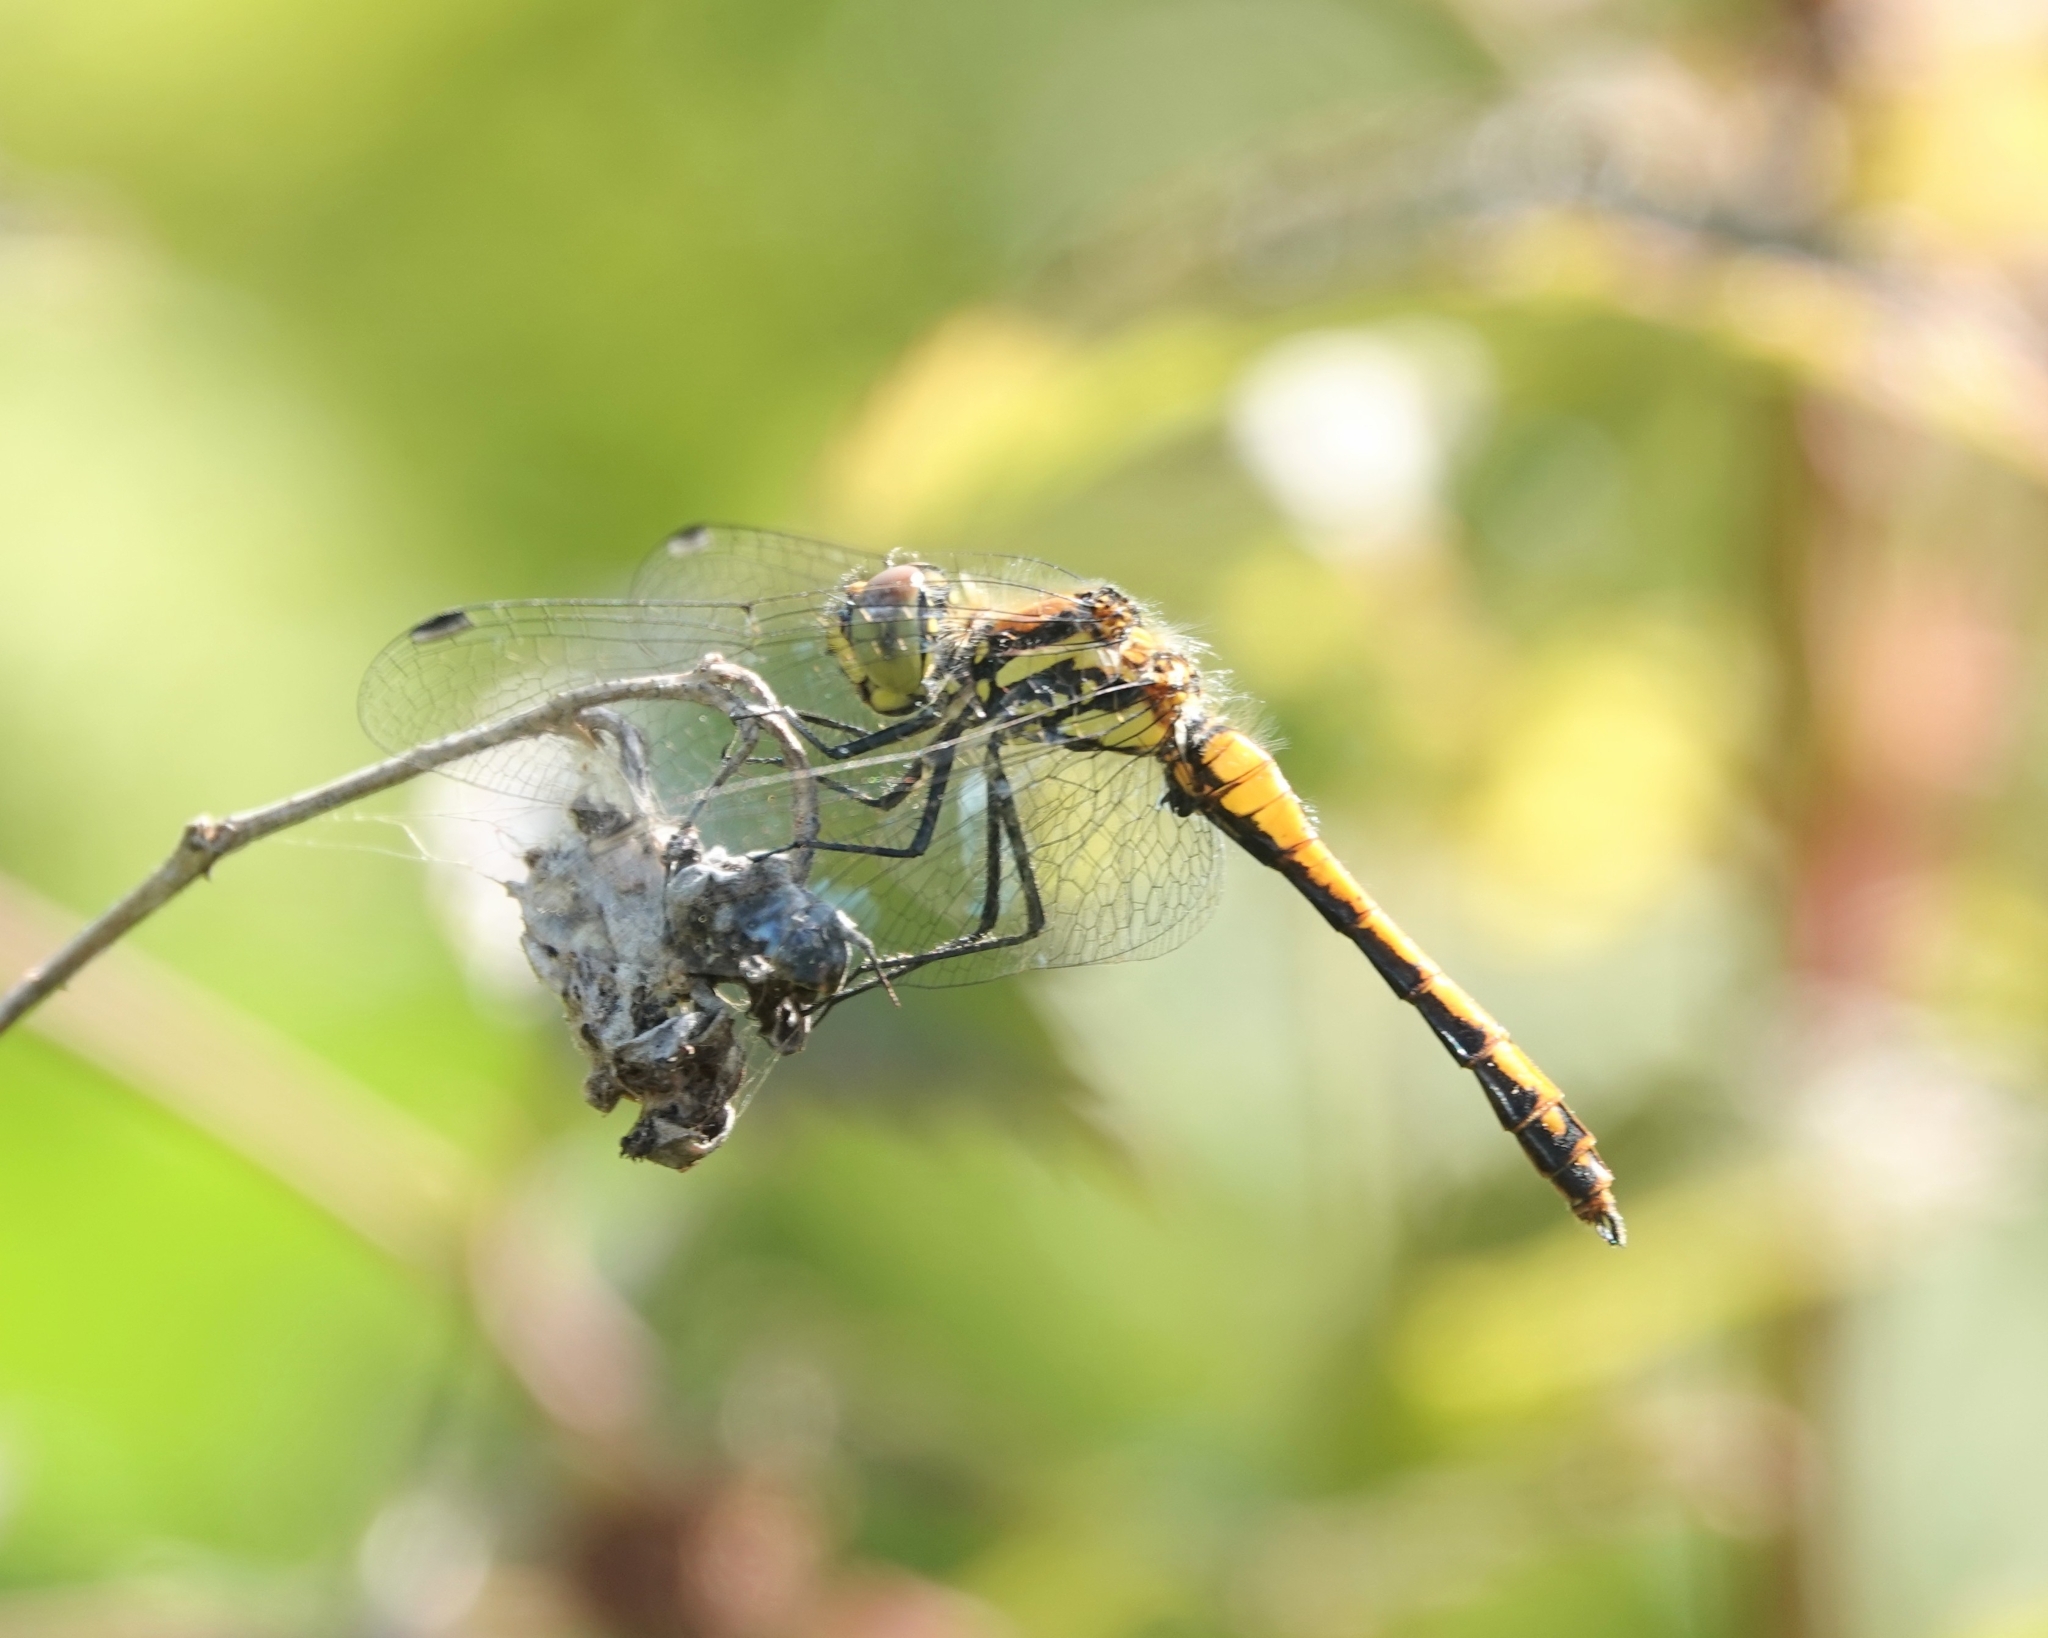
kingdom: Animalia
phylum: Arthropoda
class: Insecta
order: Odonata
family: Libellulidae
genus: Sympetrum
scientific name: Sympetrum danae
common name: Black darter
